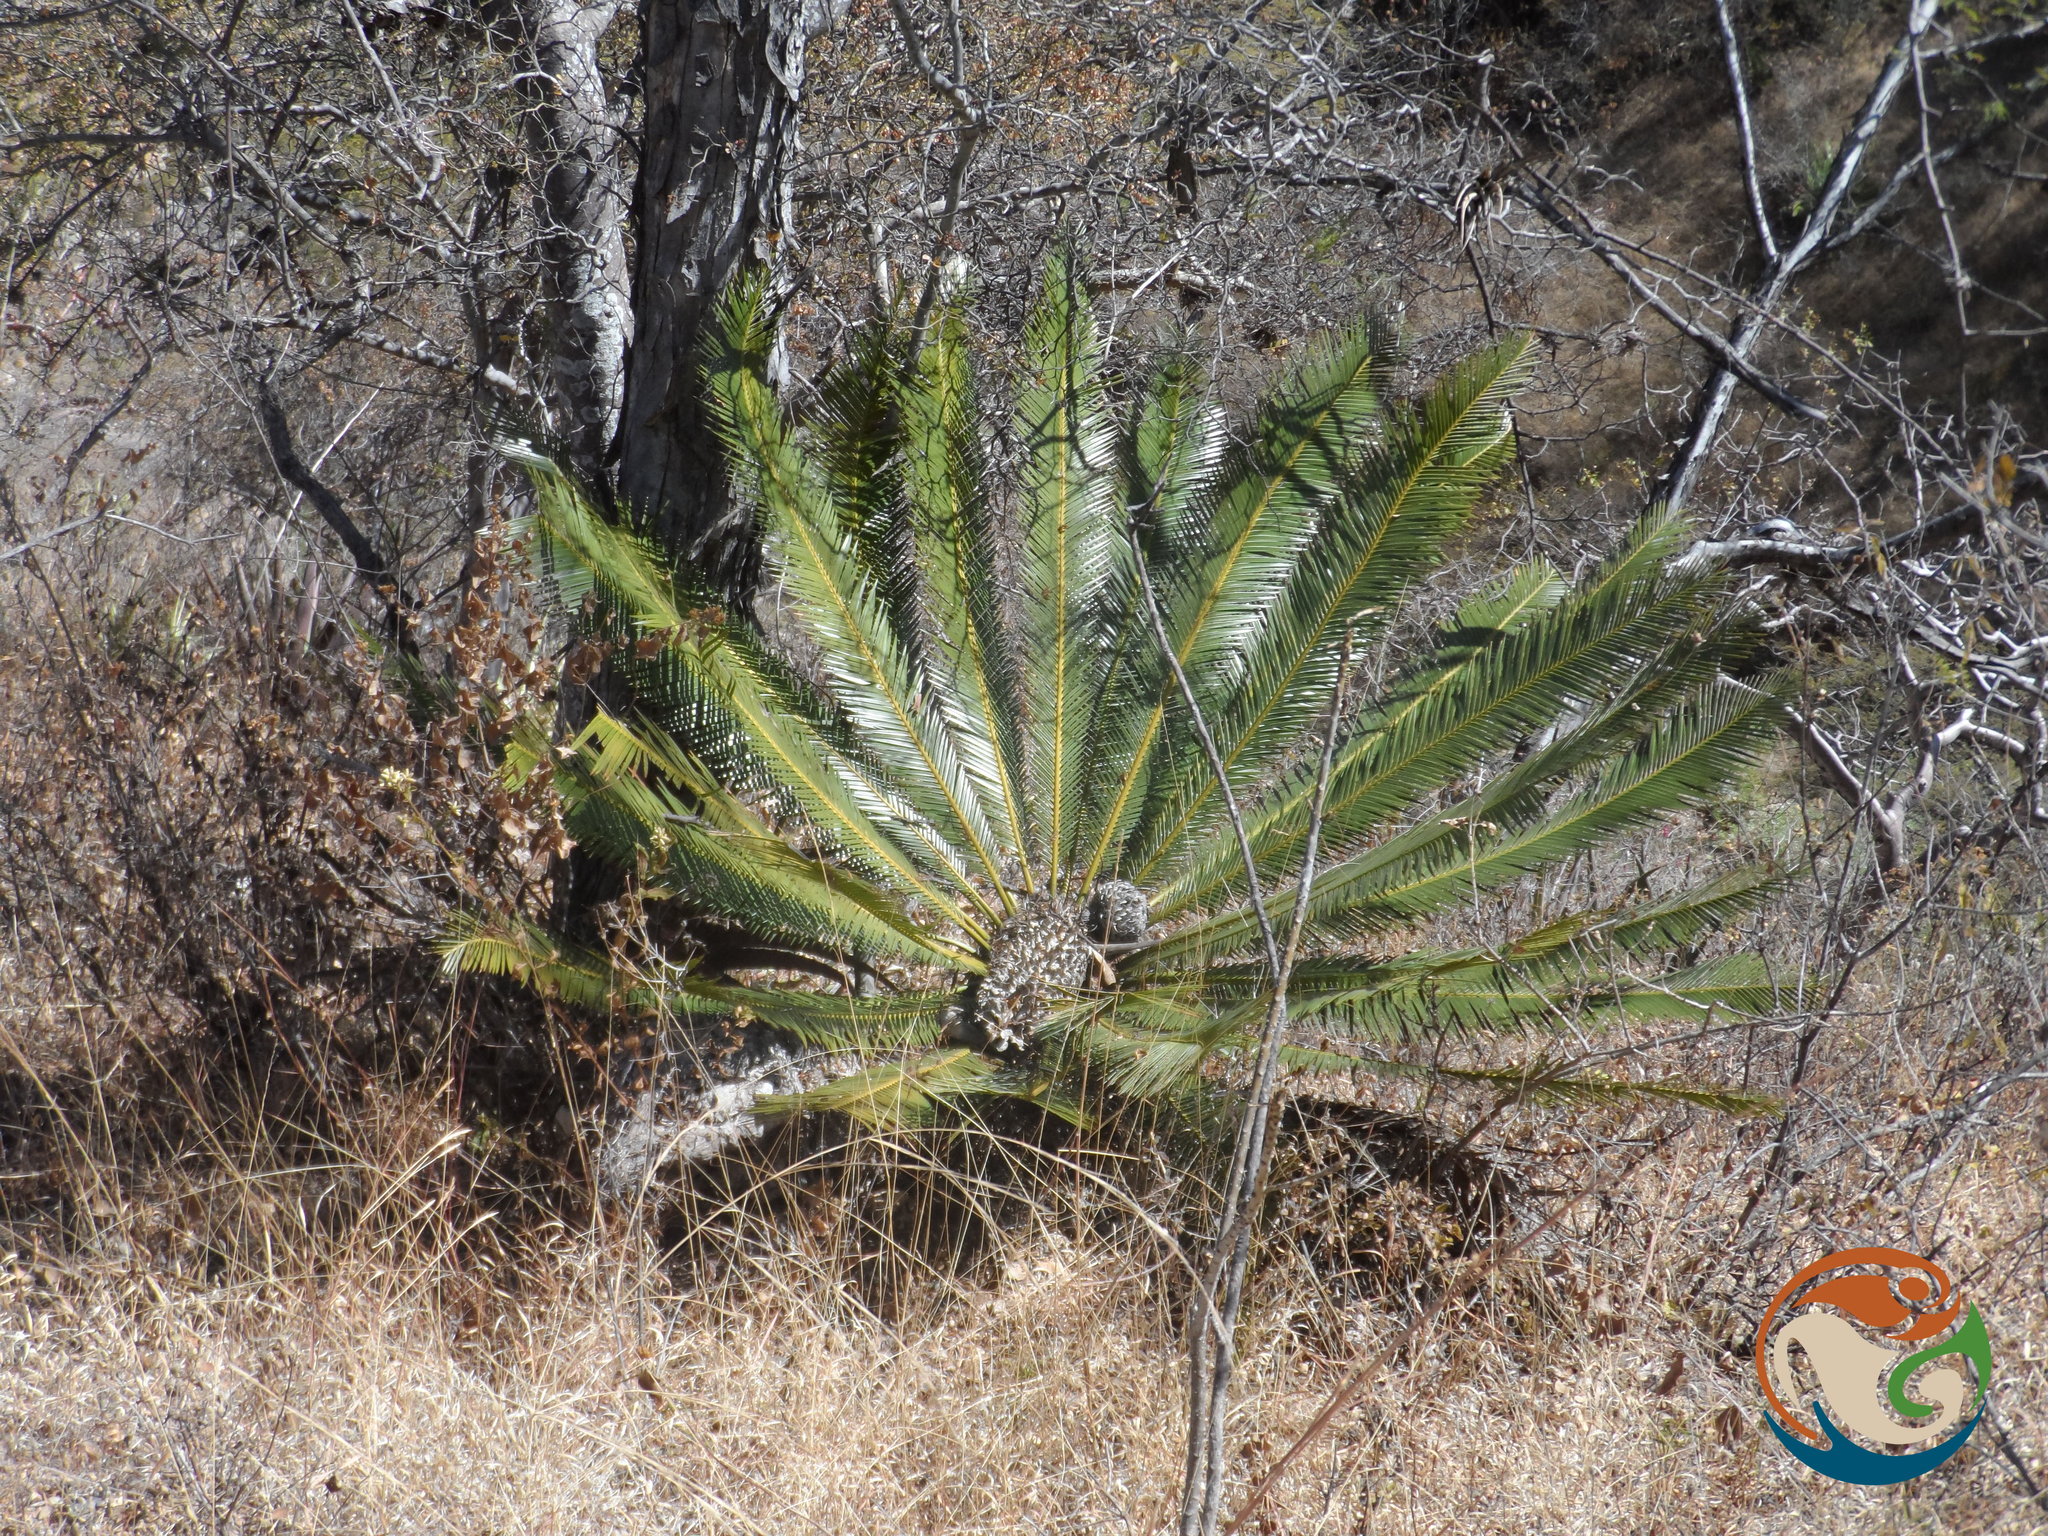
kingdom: Plantae
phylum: Tracheophyta
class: Cycadopsida
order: Cycadales
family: Zamiaceae
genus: Dioon
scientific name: Dioon planifolium
